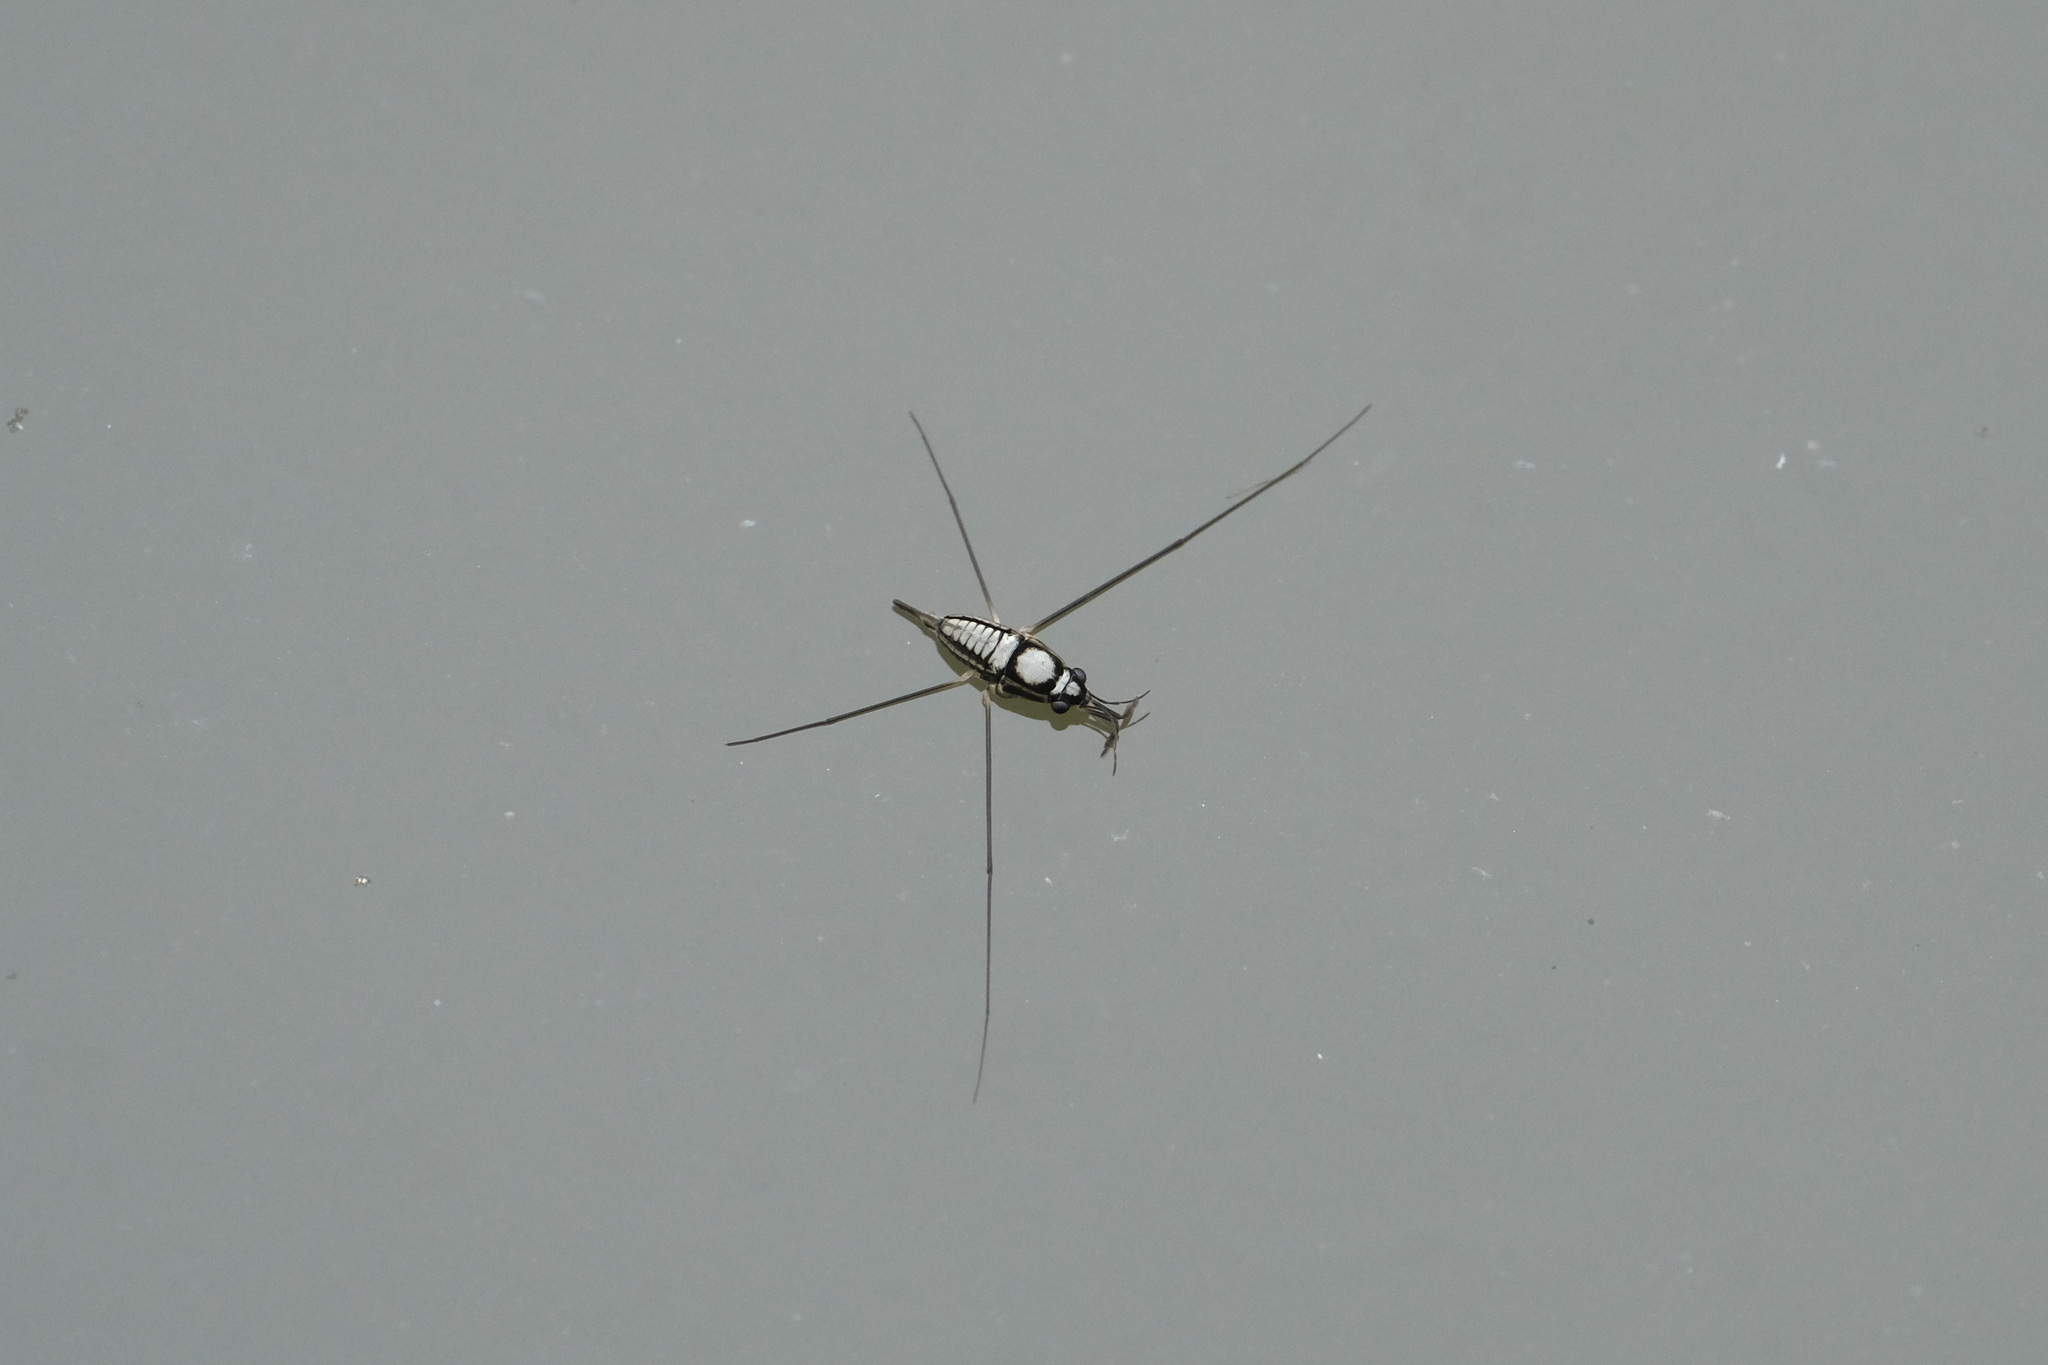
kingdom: Animalia
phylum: Arthropoda
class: Insecta
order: Hemiptera
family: Gerridae
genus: Rhagadotarsus
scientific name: Rhagadotarsus kraepelini
